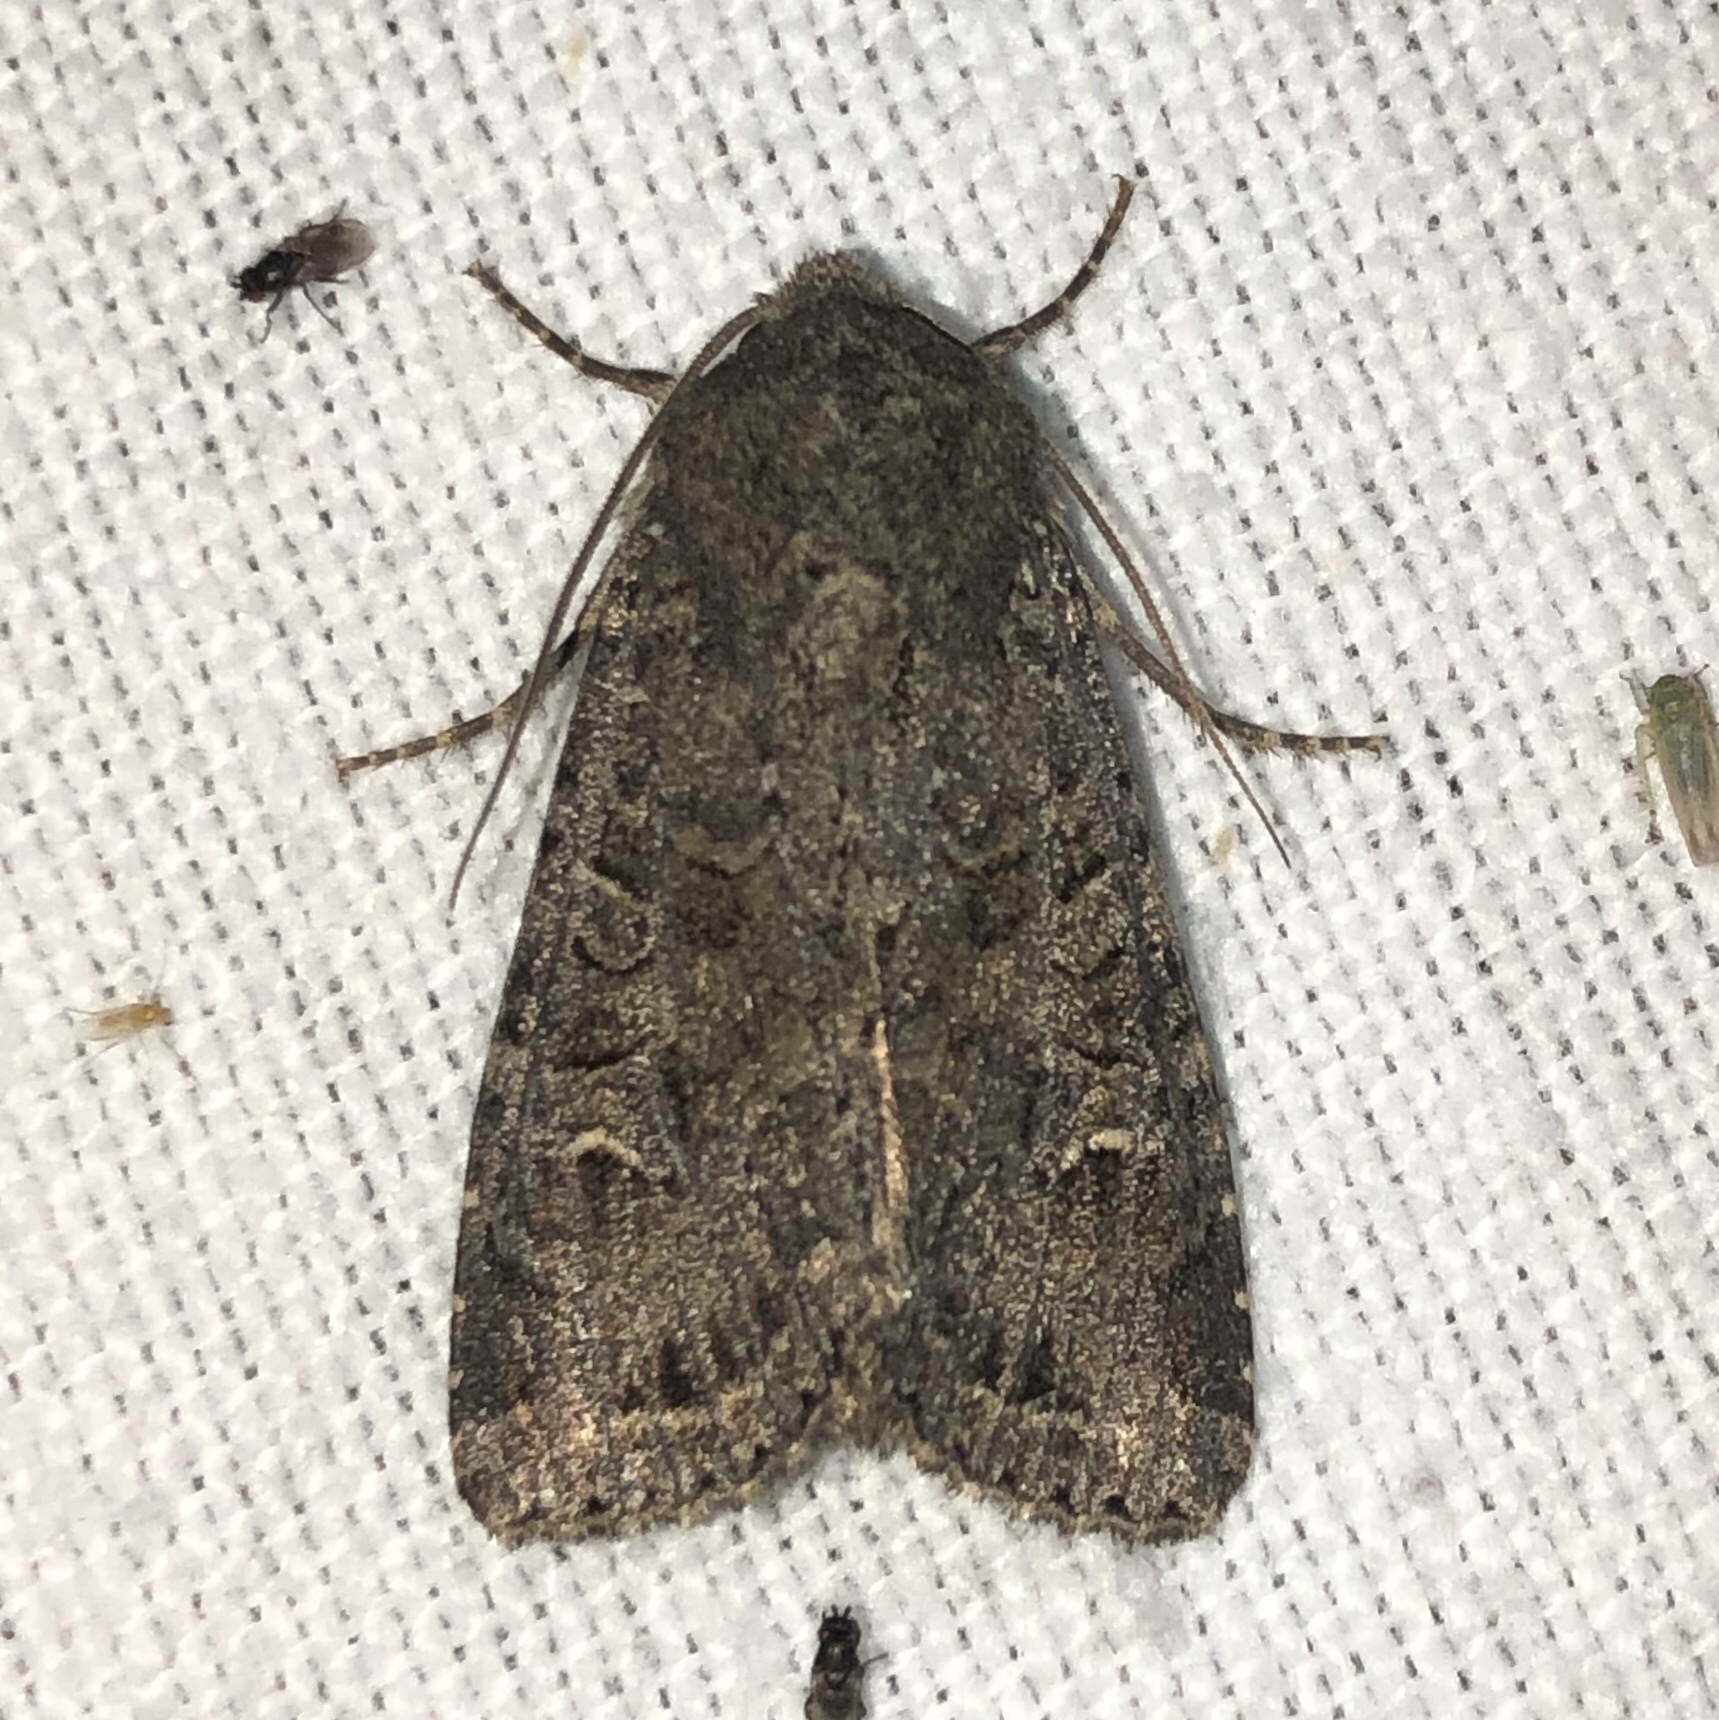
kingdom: Animalia
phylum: Arthropoda
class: Insecta
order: Lepidoptera
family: Noctuidae
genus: Apamea
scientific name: Apamea devastator
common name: Glassy cutworm
